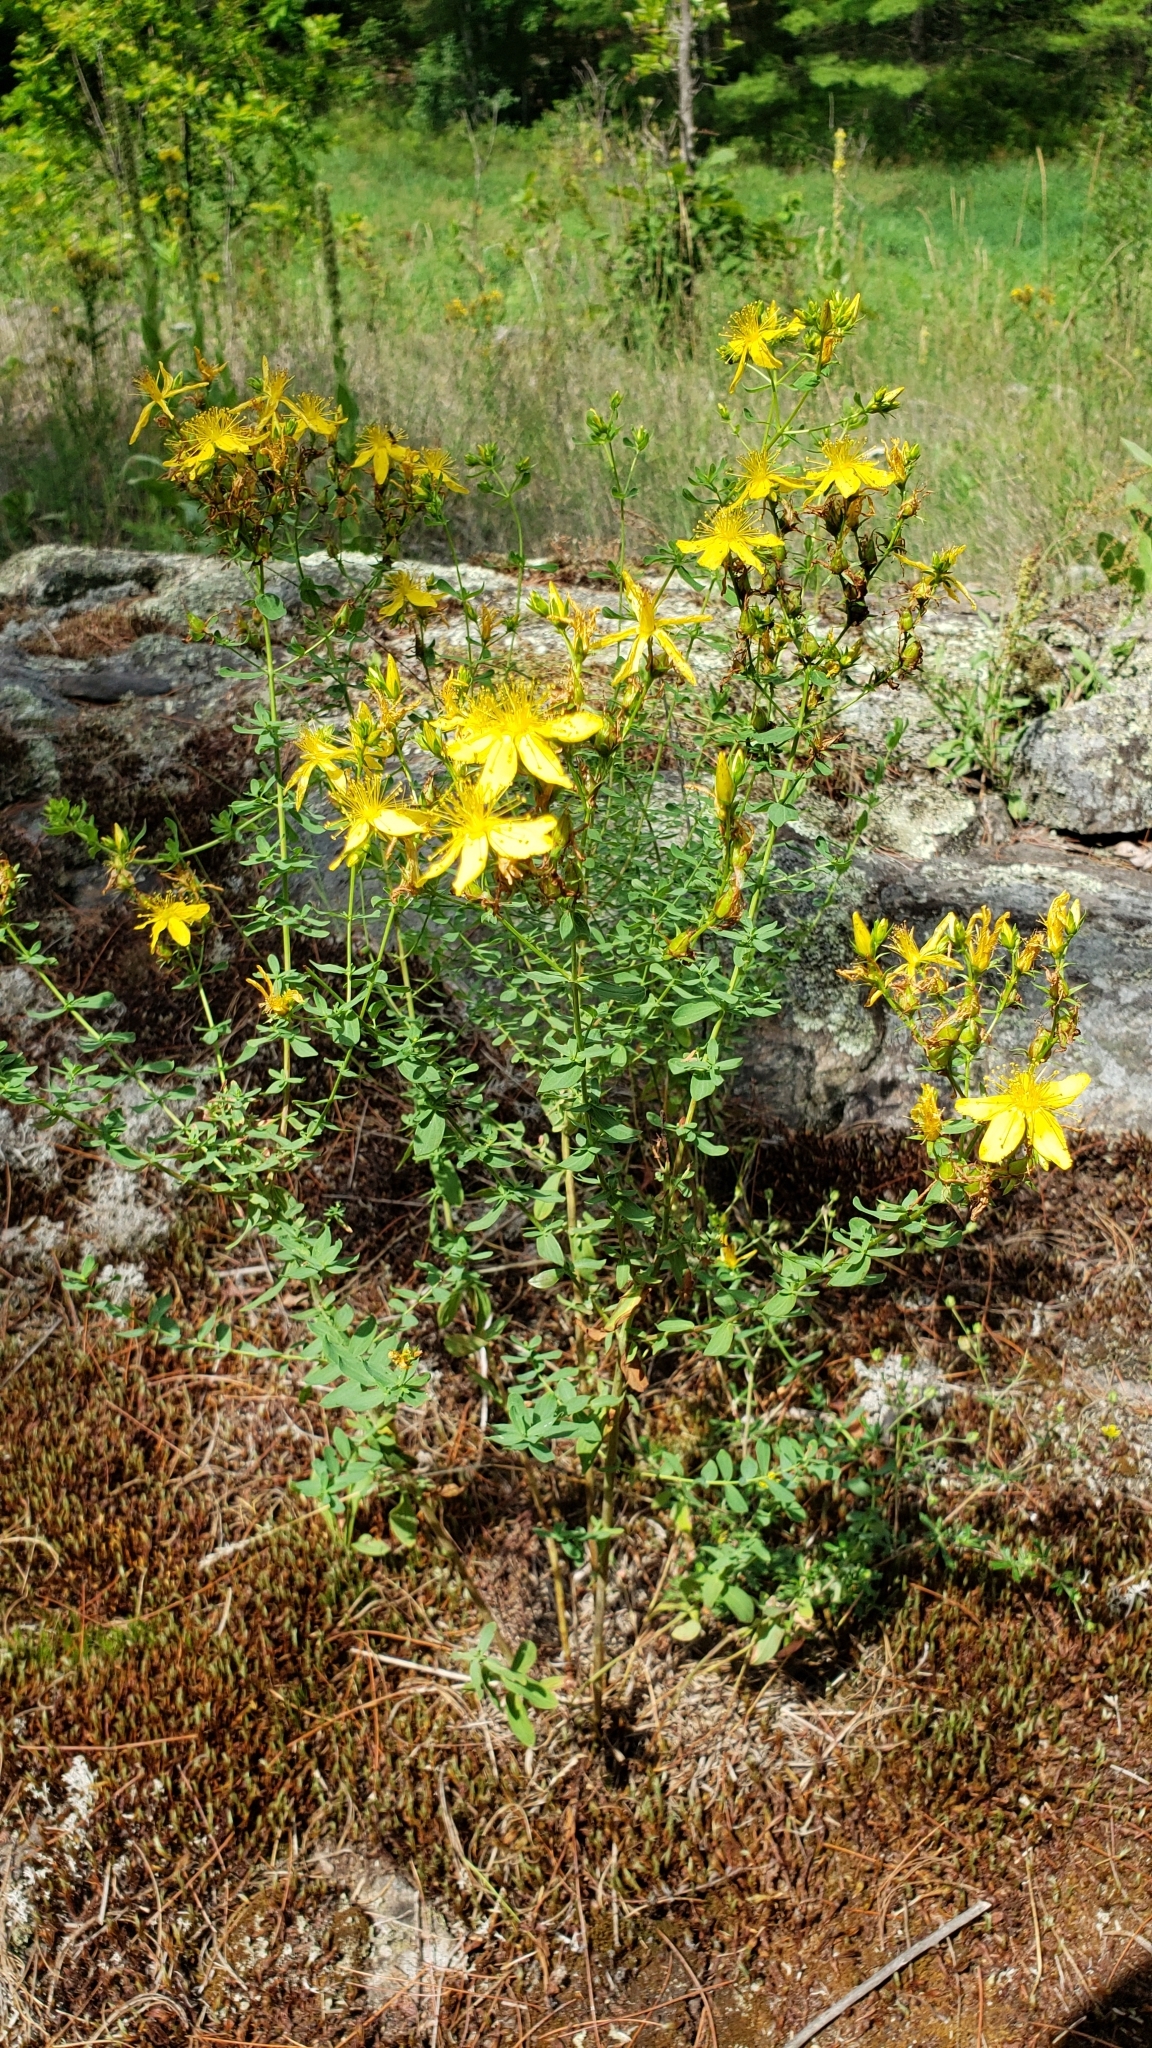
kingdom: Plantae
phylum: Tracheophyta
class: Magnoliopsida
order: Malpighiales
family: Hypericaceae
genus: Hypericum
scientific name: Hypericum perforatum
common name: Common st. johnswort
